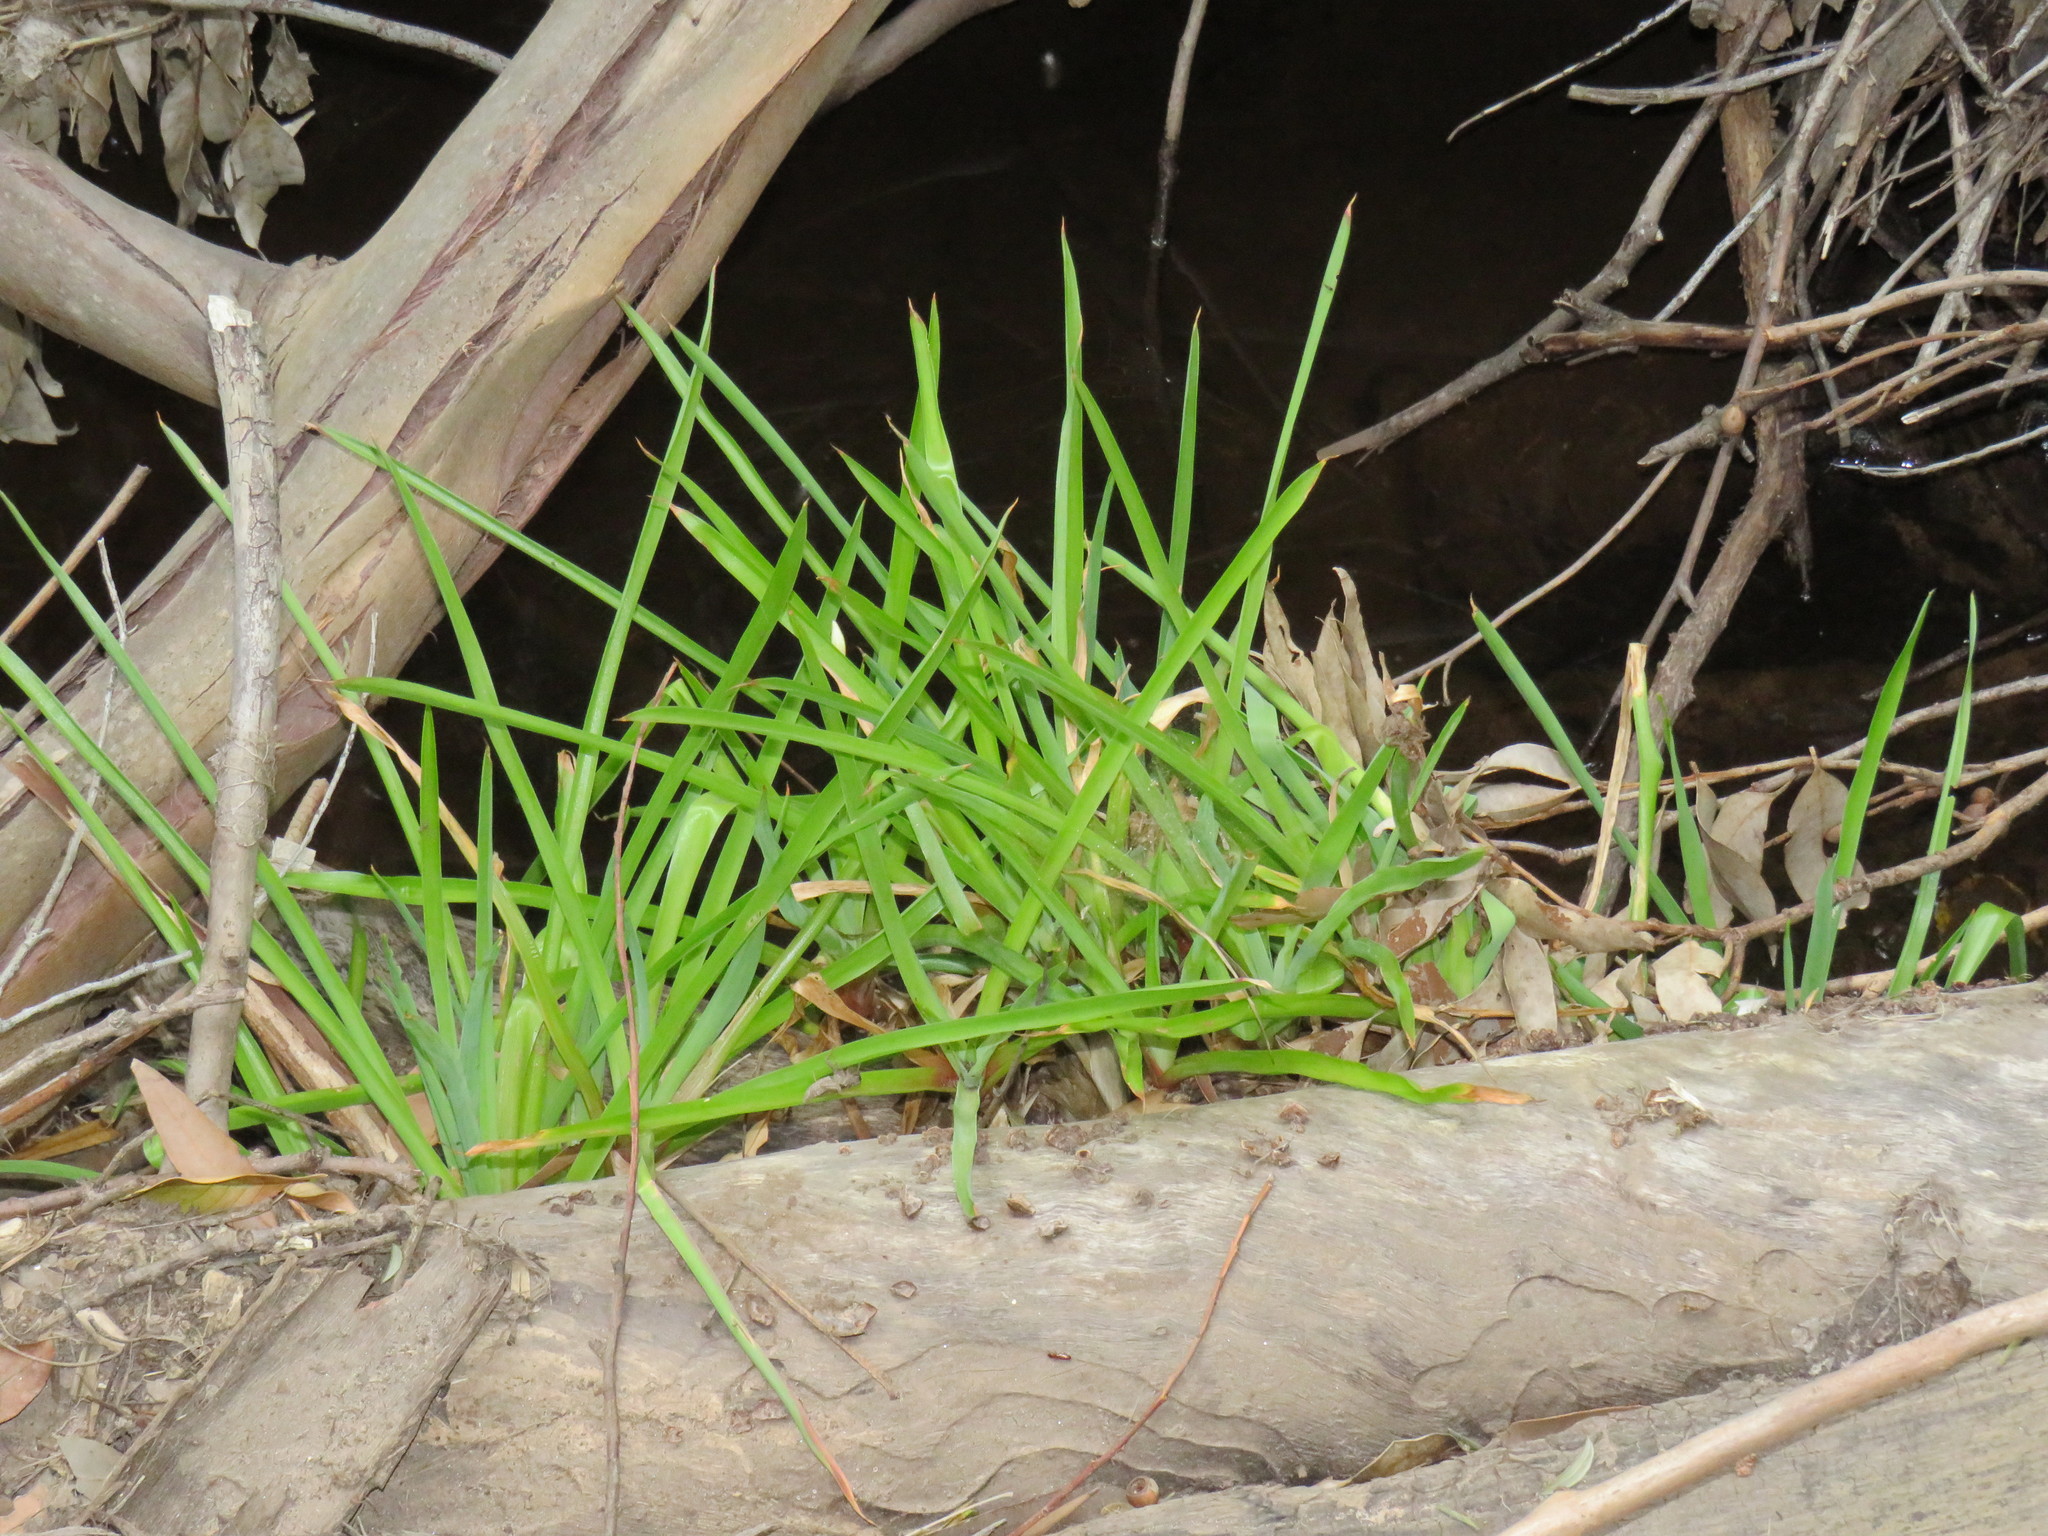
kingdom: Plantae
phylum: Tracheophyta
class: Liliopsida
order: Poales
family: Juncaceae
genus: Juncus
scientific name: Juncus lomatophyllus
